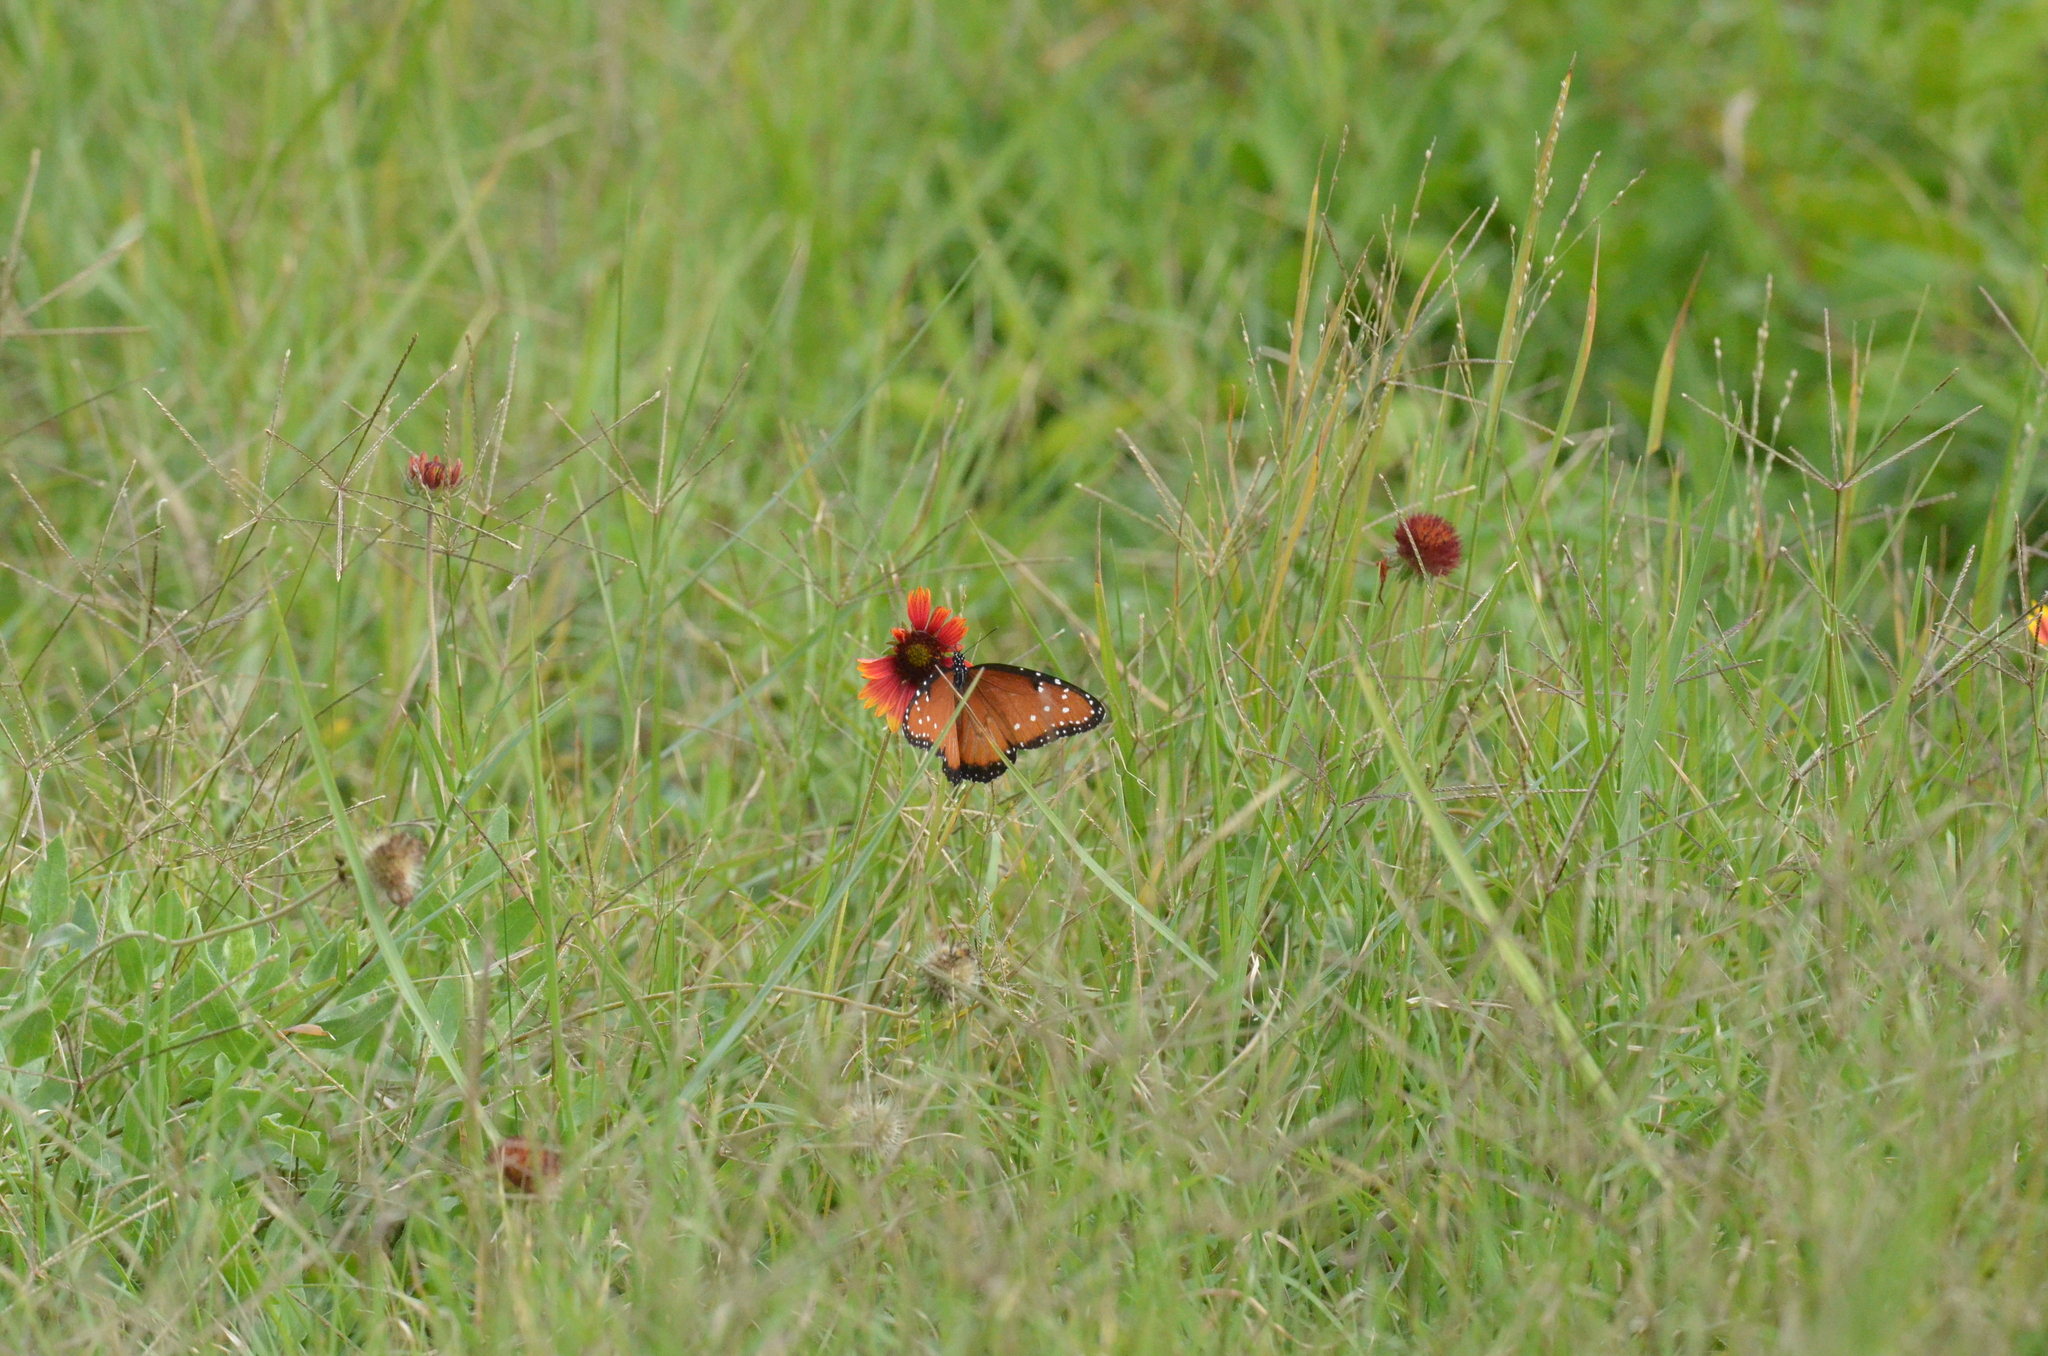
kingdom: Animalia
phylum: Arthropoda
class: Insecta
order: Lepidoptera
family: Nymphalidae
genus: Danaus
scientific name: Danaus gilippus
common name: Queen
